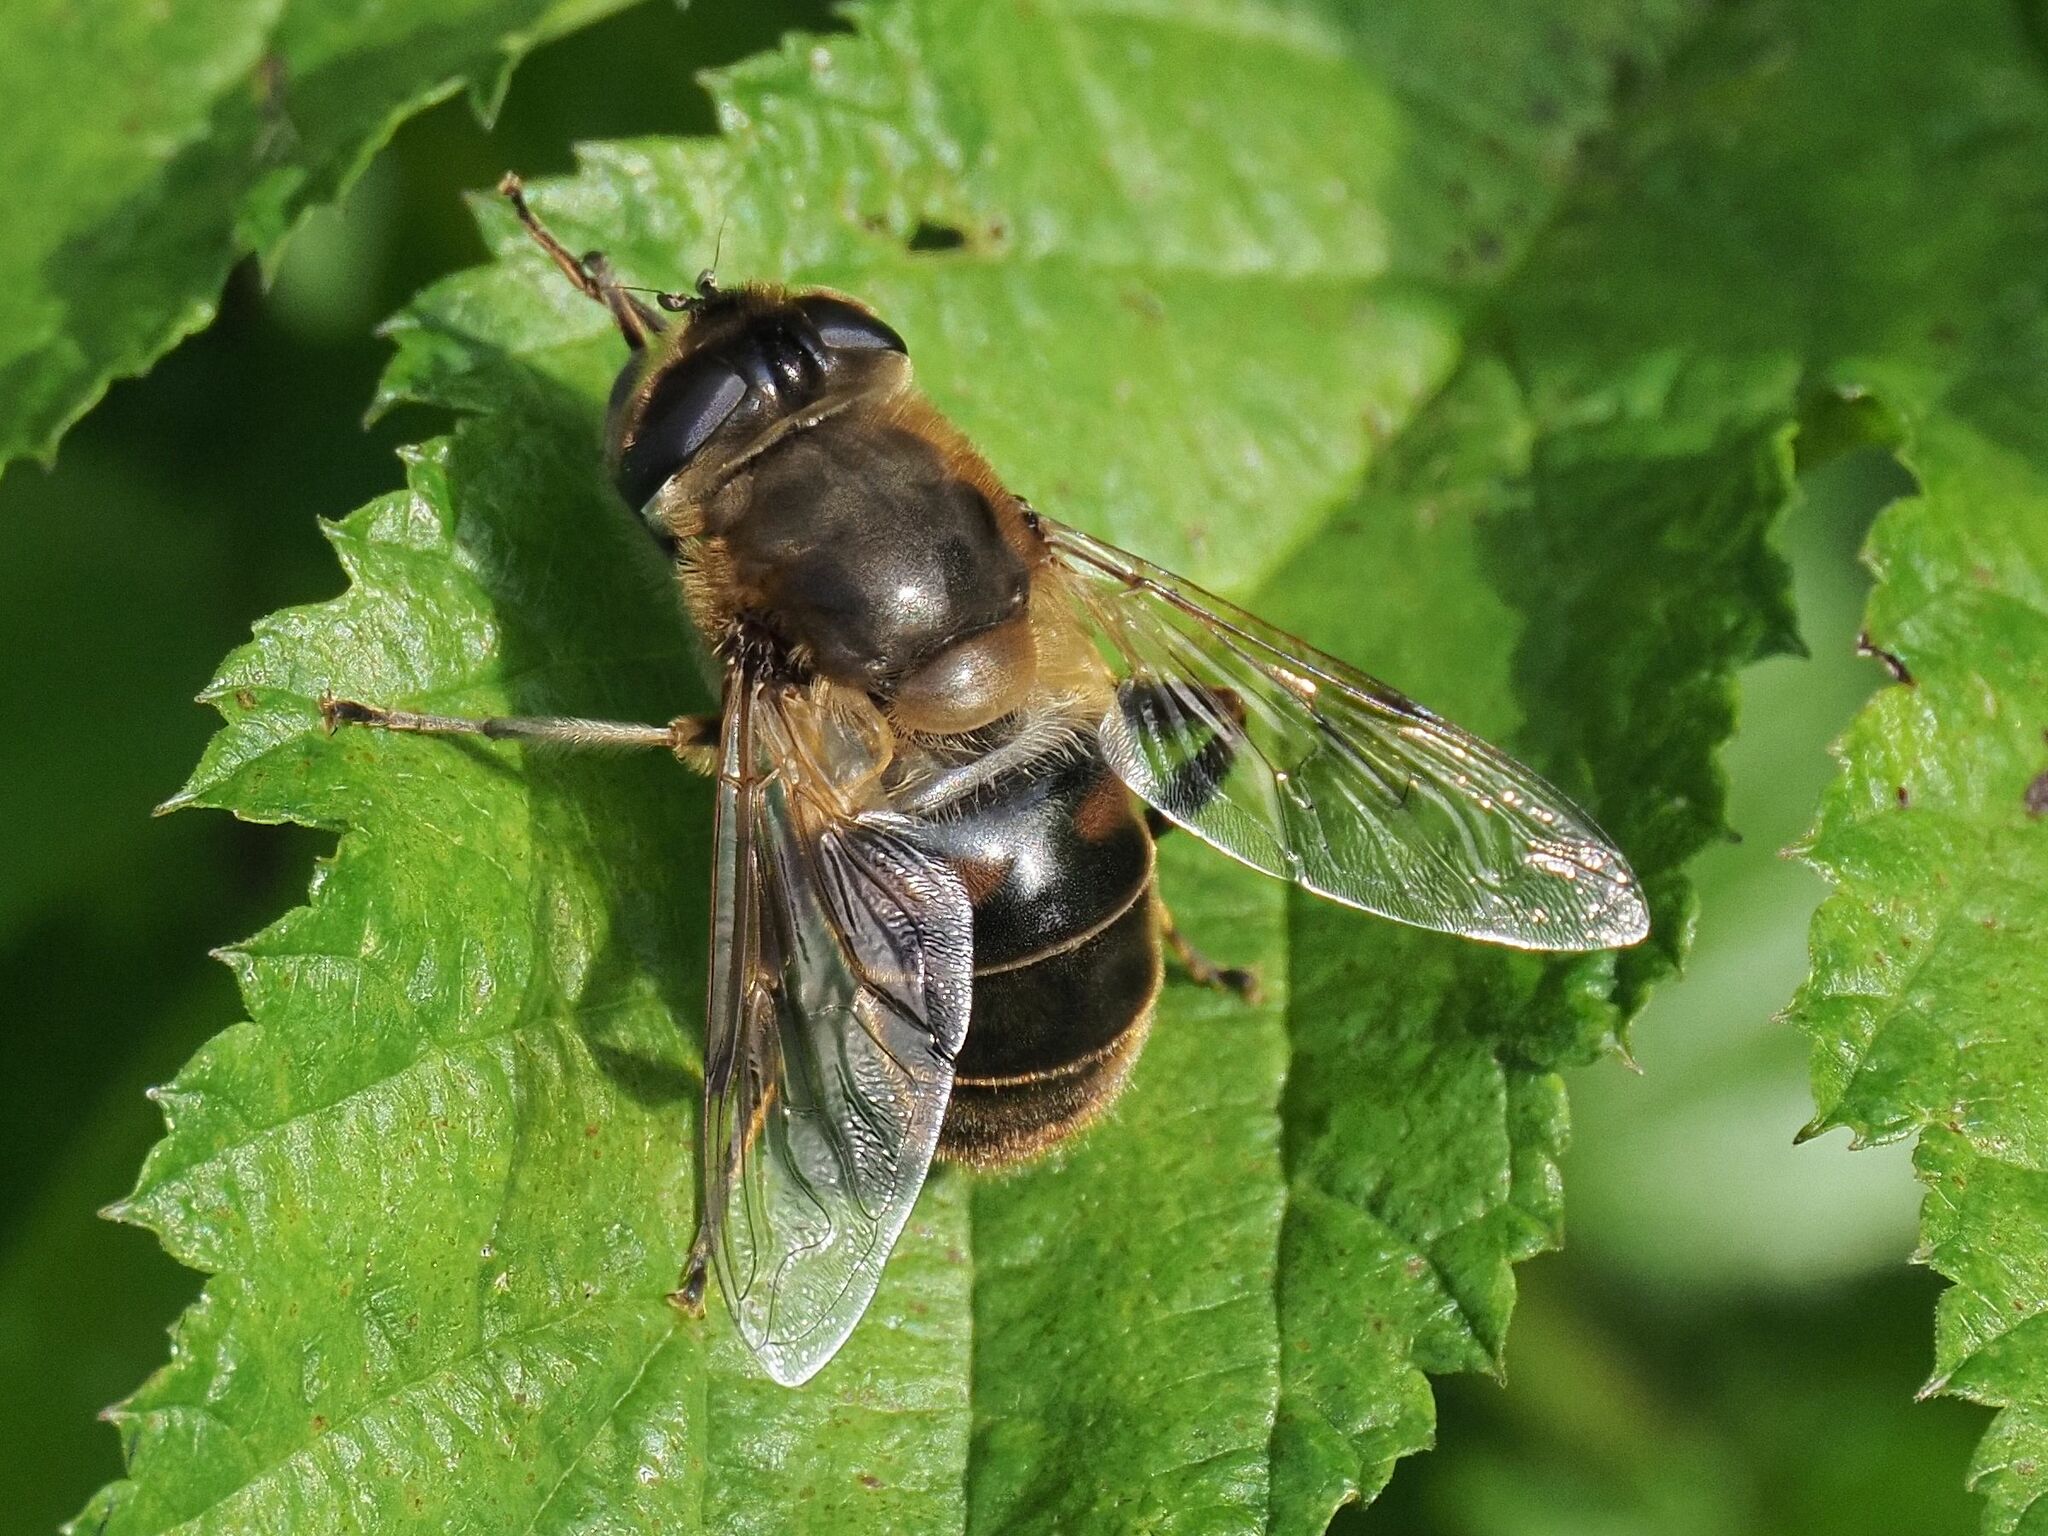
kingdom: Animalia
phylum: Arthropoda
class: Insecta
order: Diptera
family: Syrphidae
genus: Eristalis
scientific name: Eristalis tenax
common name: Drone fly
